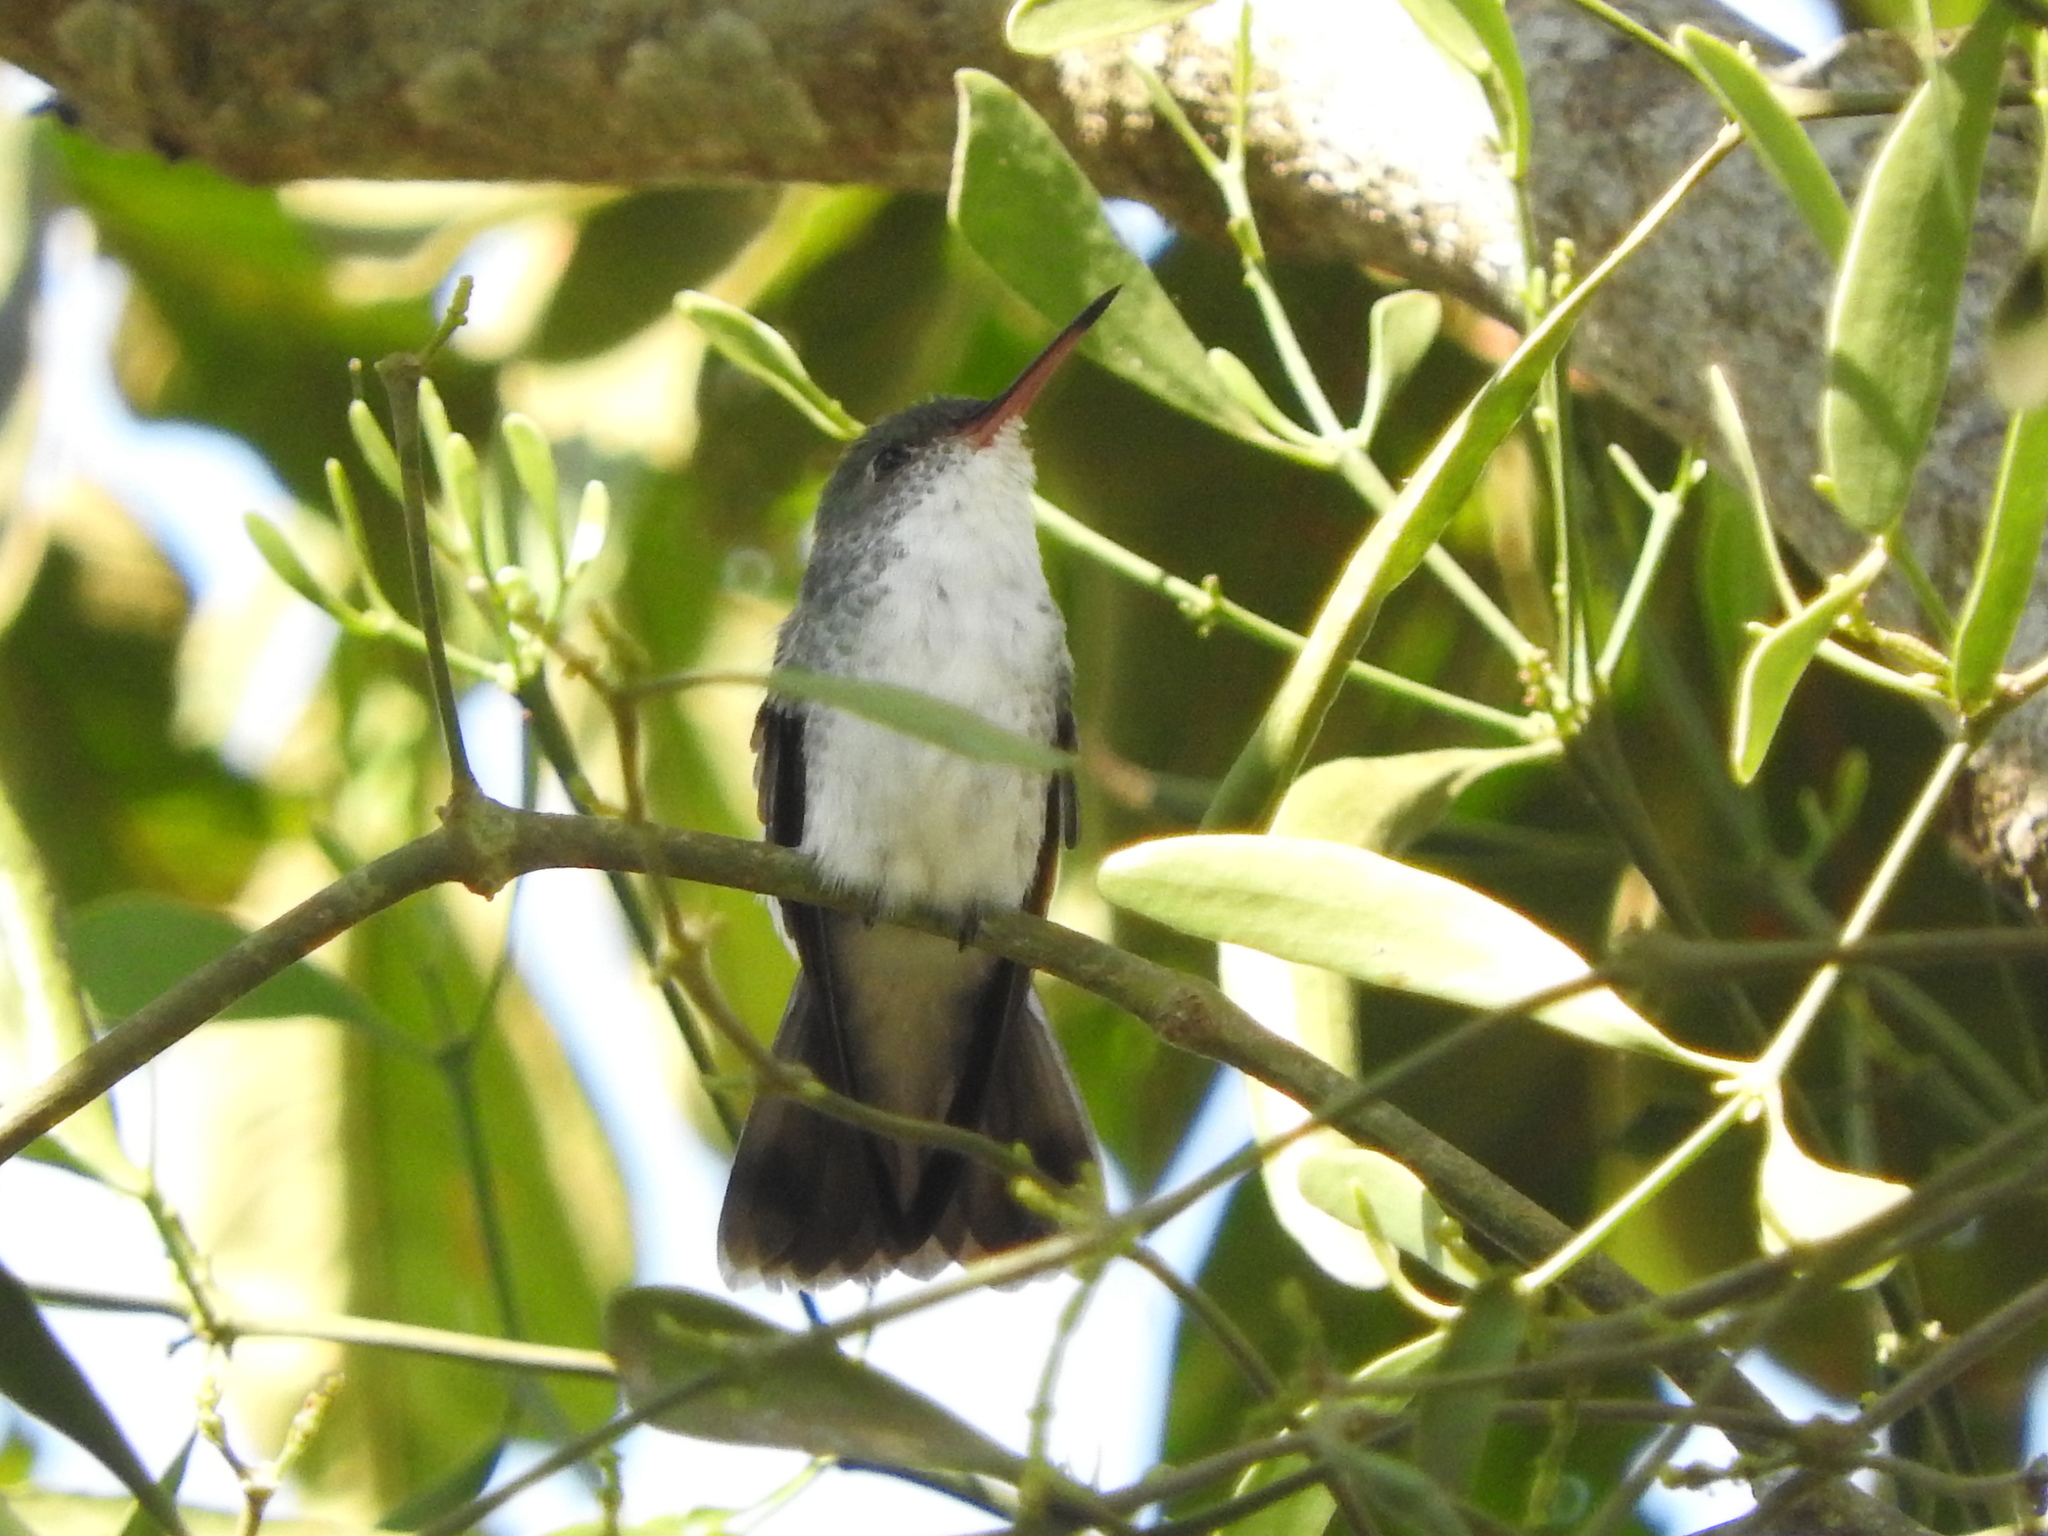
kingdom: Animalia
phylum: Chordata
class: Aves
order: Apodiformes
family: Trochilidae
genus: Chlorestes
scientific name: Chlorestes candida
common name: White-bellied emerald
